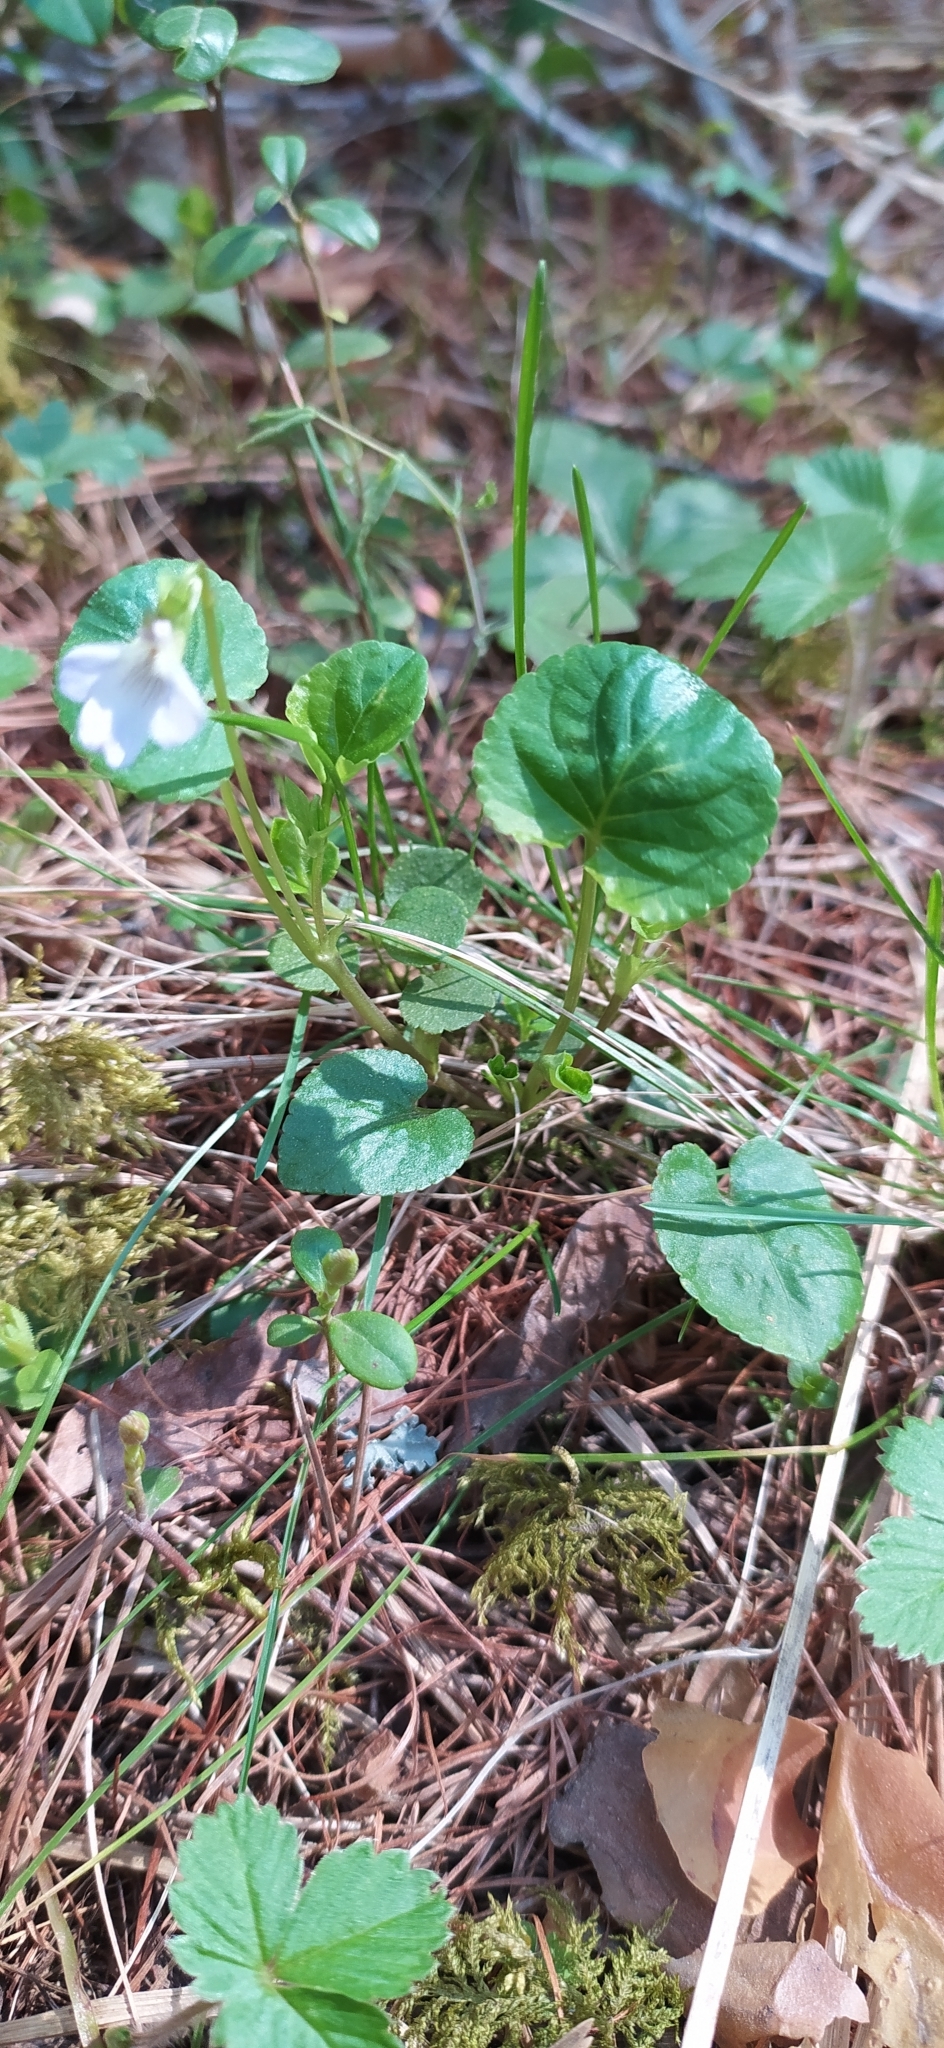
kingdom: Plantae
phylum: Tracheophyta
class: Magnoliopsida
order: Malpighiales
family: Violaceae
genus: Viola
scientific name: Viola mauritii
